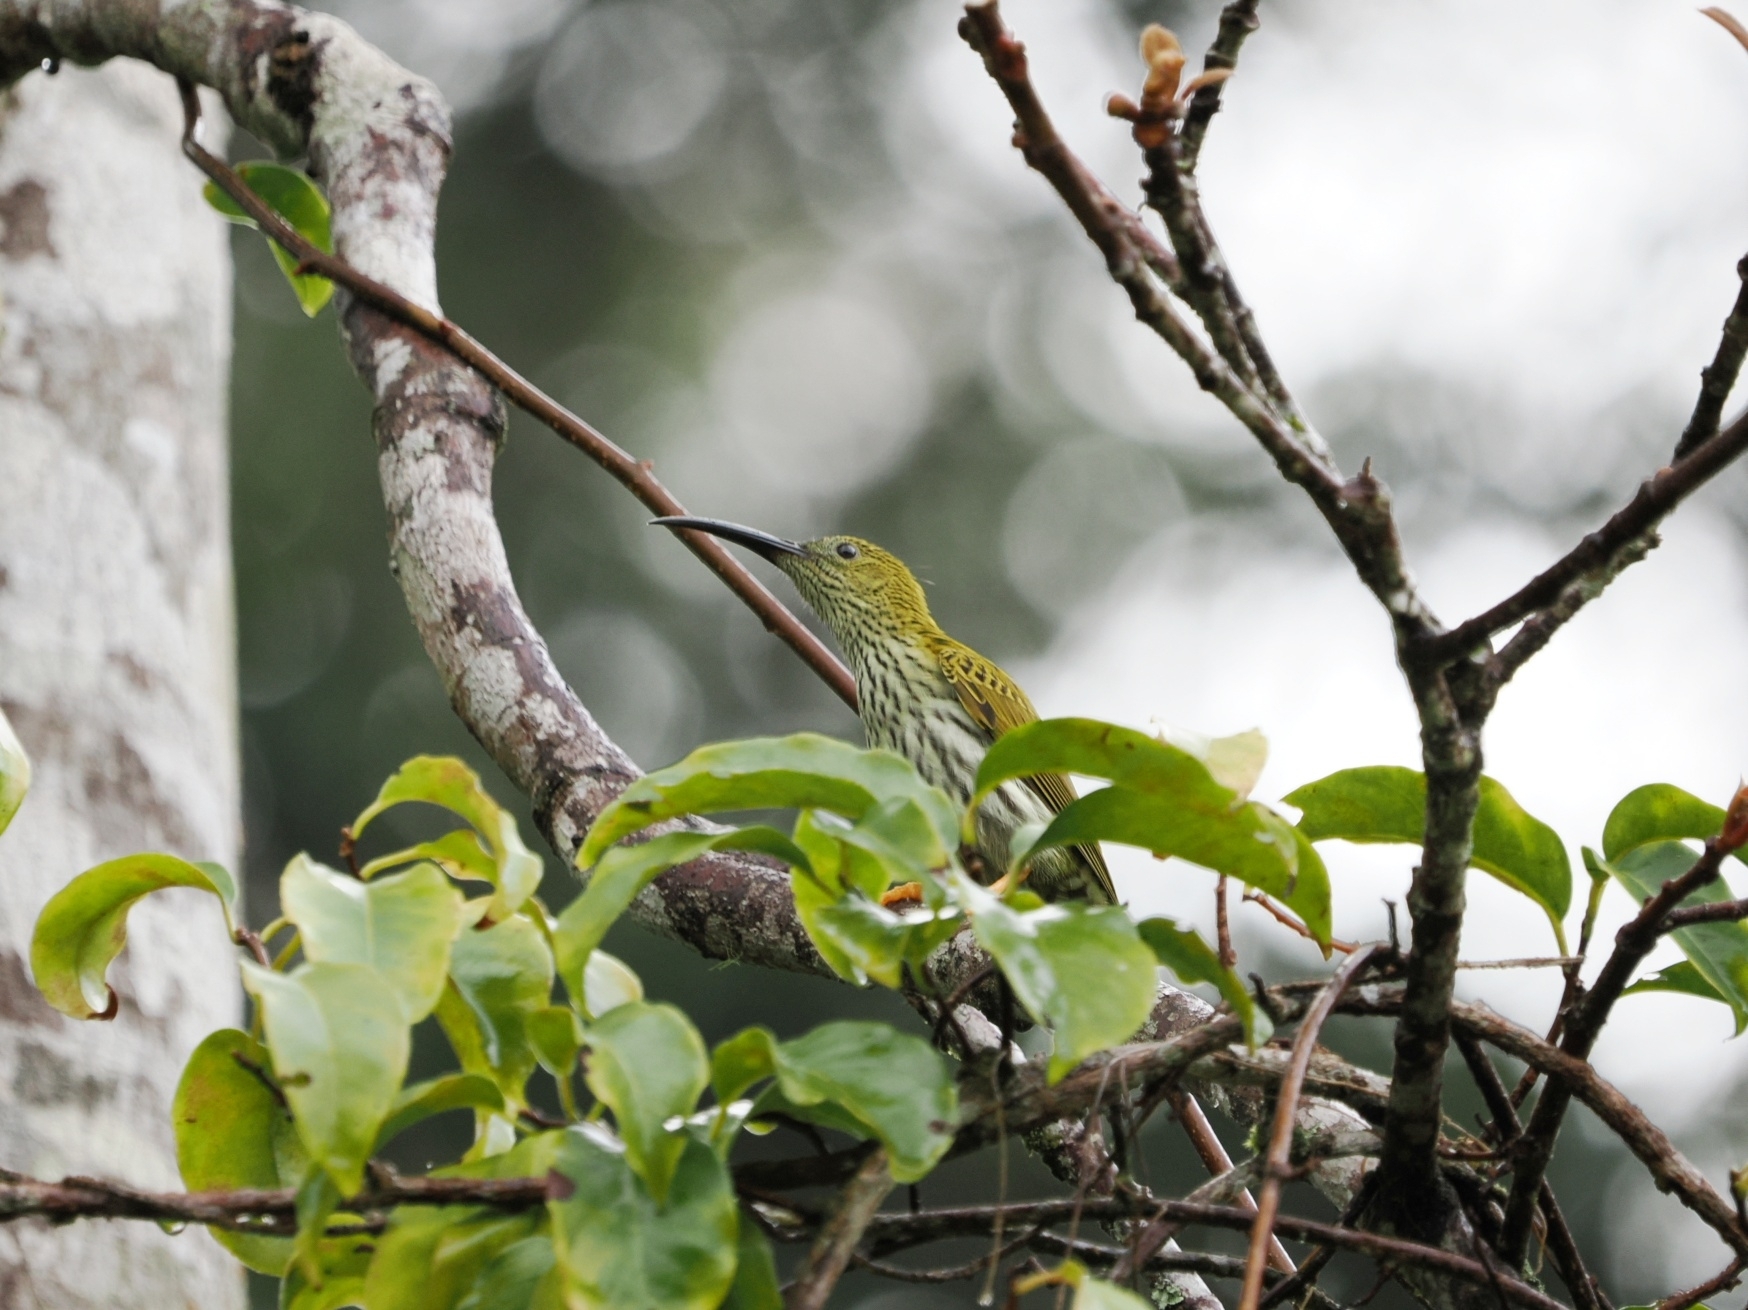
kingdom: Animalia
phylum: Chordata
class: Aves
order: Passeriformes
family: Nectariniidae
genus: Arachnothera
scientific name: Arachnothera magna
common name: Streaked spiderhunter
